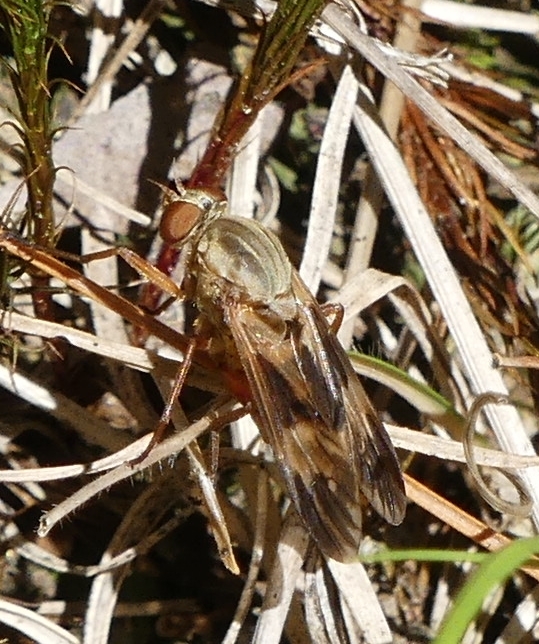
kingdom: Animalia
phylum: Arthropoda
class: Insecta
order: Diptera
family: Xylophagidae
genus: Arthropeas
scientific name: Arthropeas americana
